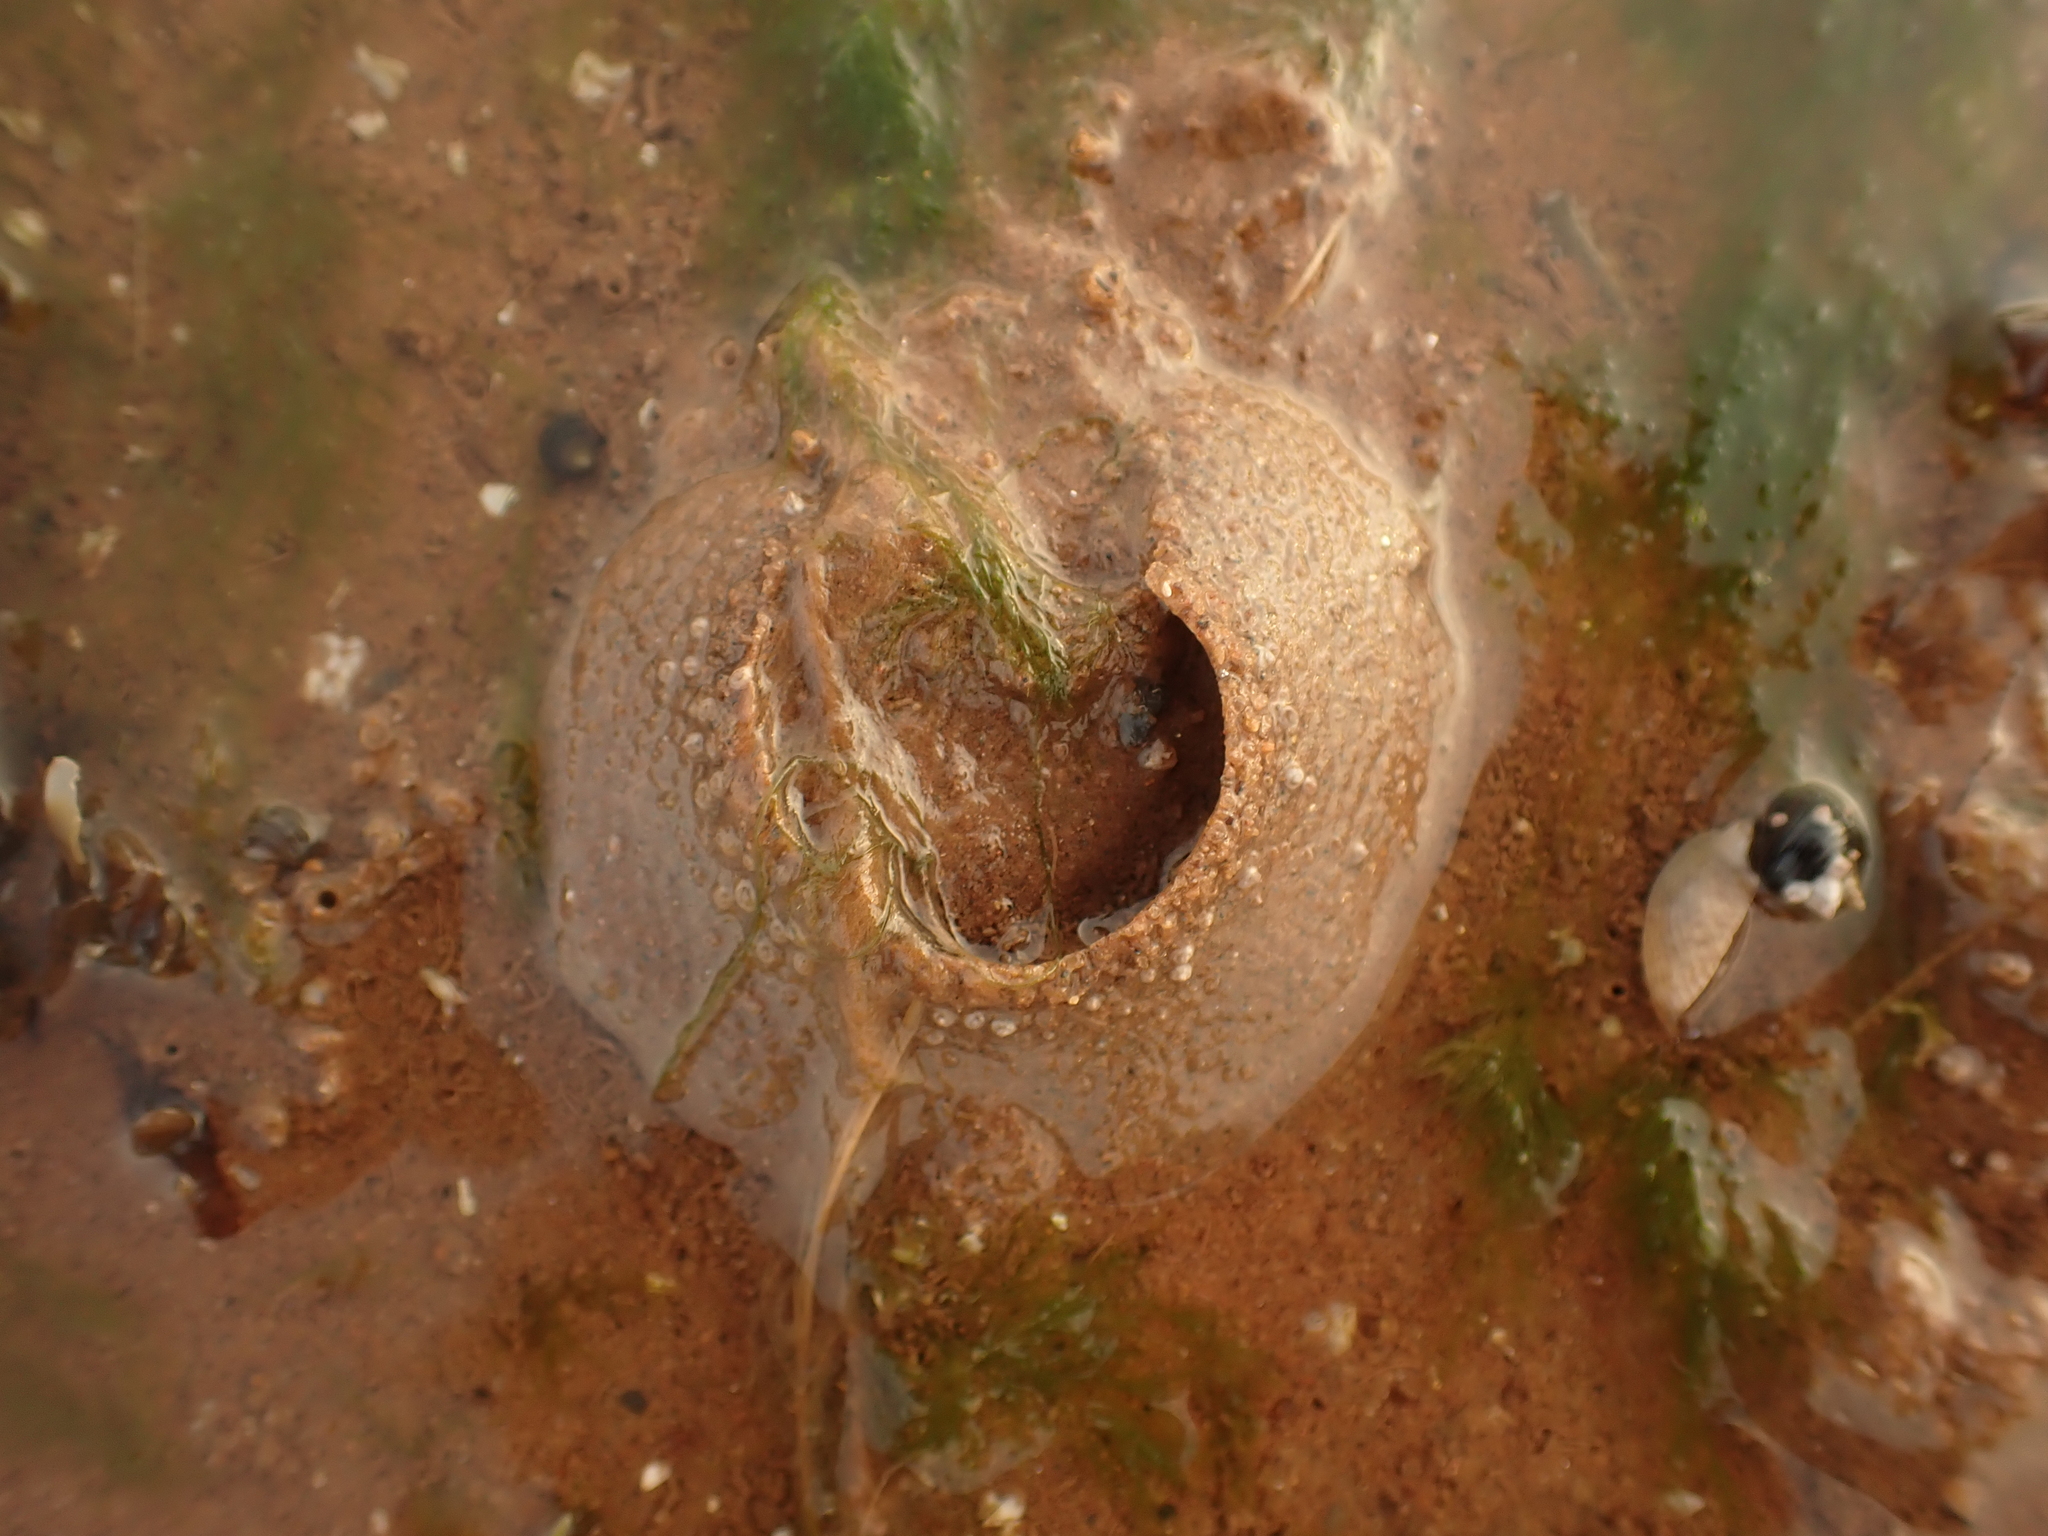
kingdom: Animalia
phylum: Mollusca
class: Gastropoda
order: Littorinimorpha
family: Naticidae
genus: Euspira
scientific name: Euspira heros
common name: Common northern moonsnail
